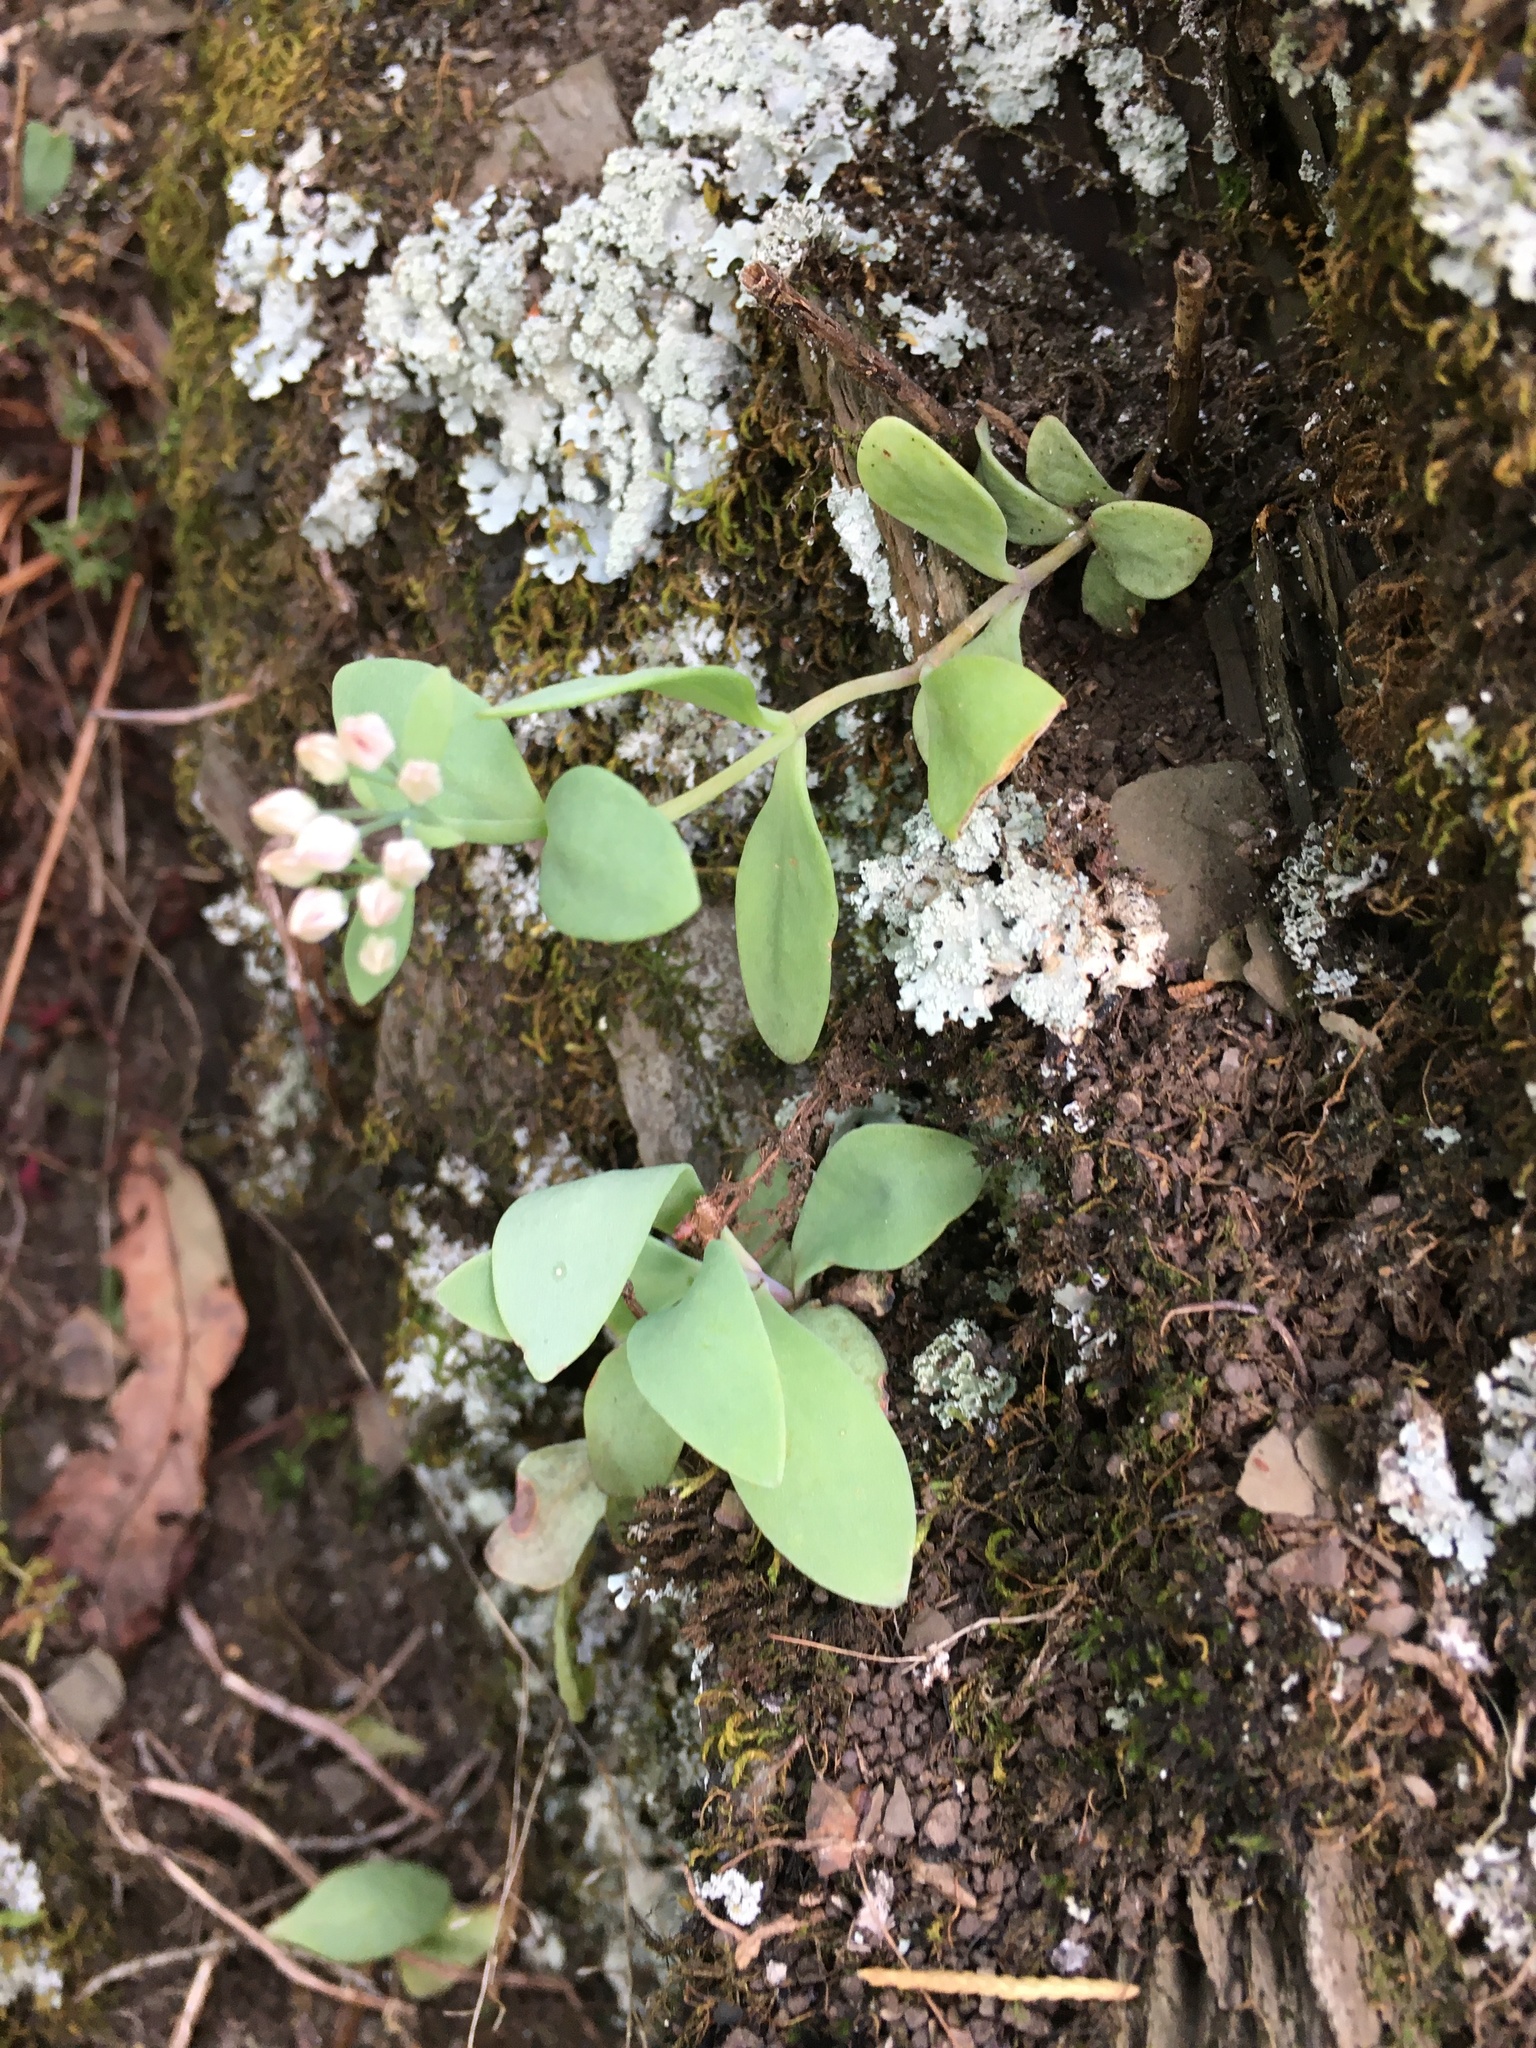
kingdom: Plantae
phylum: Tracheophyta
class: Magnoliopsida
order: Saxifragales
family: Crassulaceae
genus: Hylotelephium
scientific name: Hylotelephium telephioides
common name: Allegheny stonecrop
